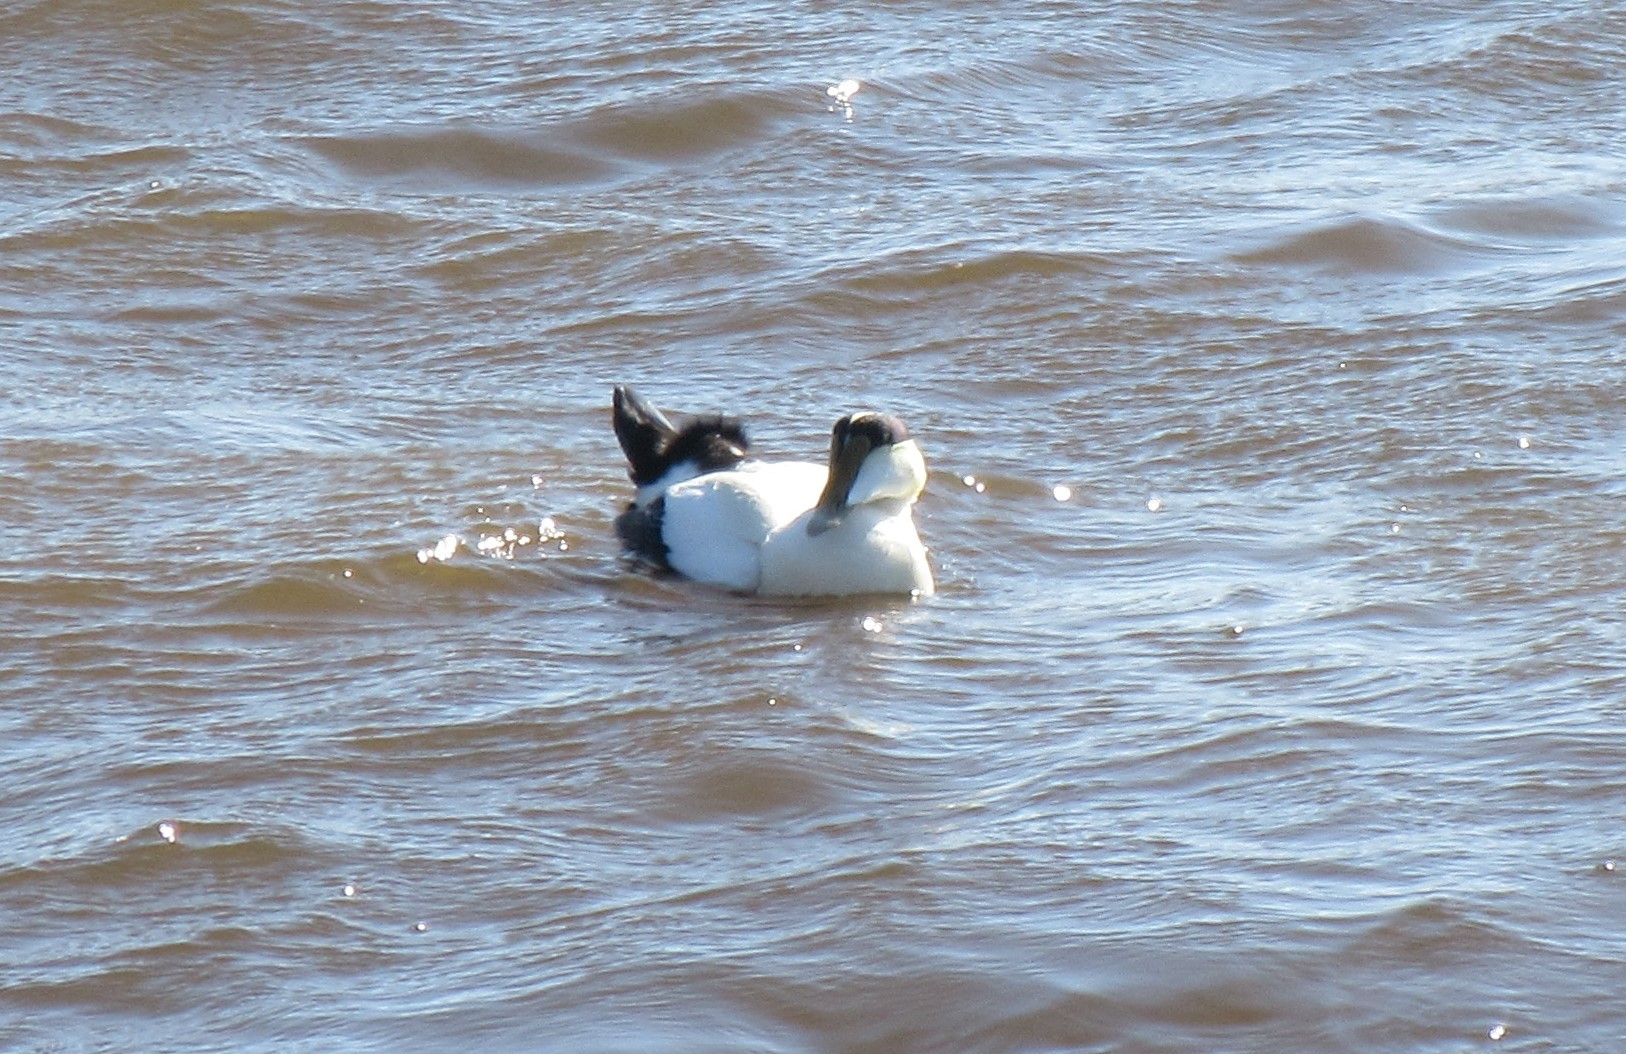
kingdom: Animalia
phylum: Chordata
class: Aves
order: Anseriformes
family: Anatidae
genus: Somateria
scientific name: Somateria mollissima
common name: Common eider
